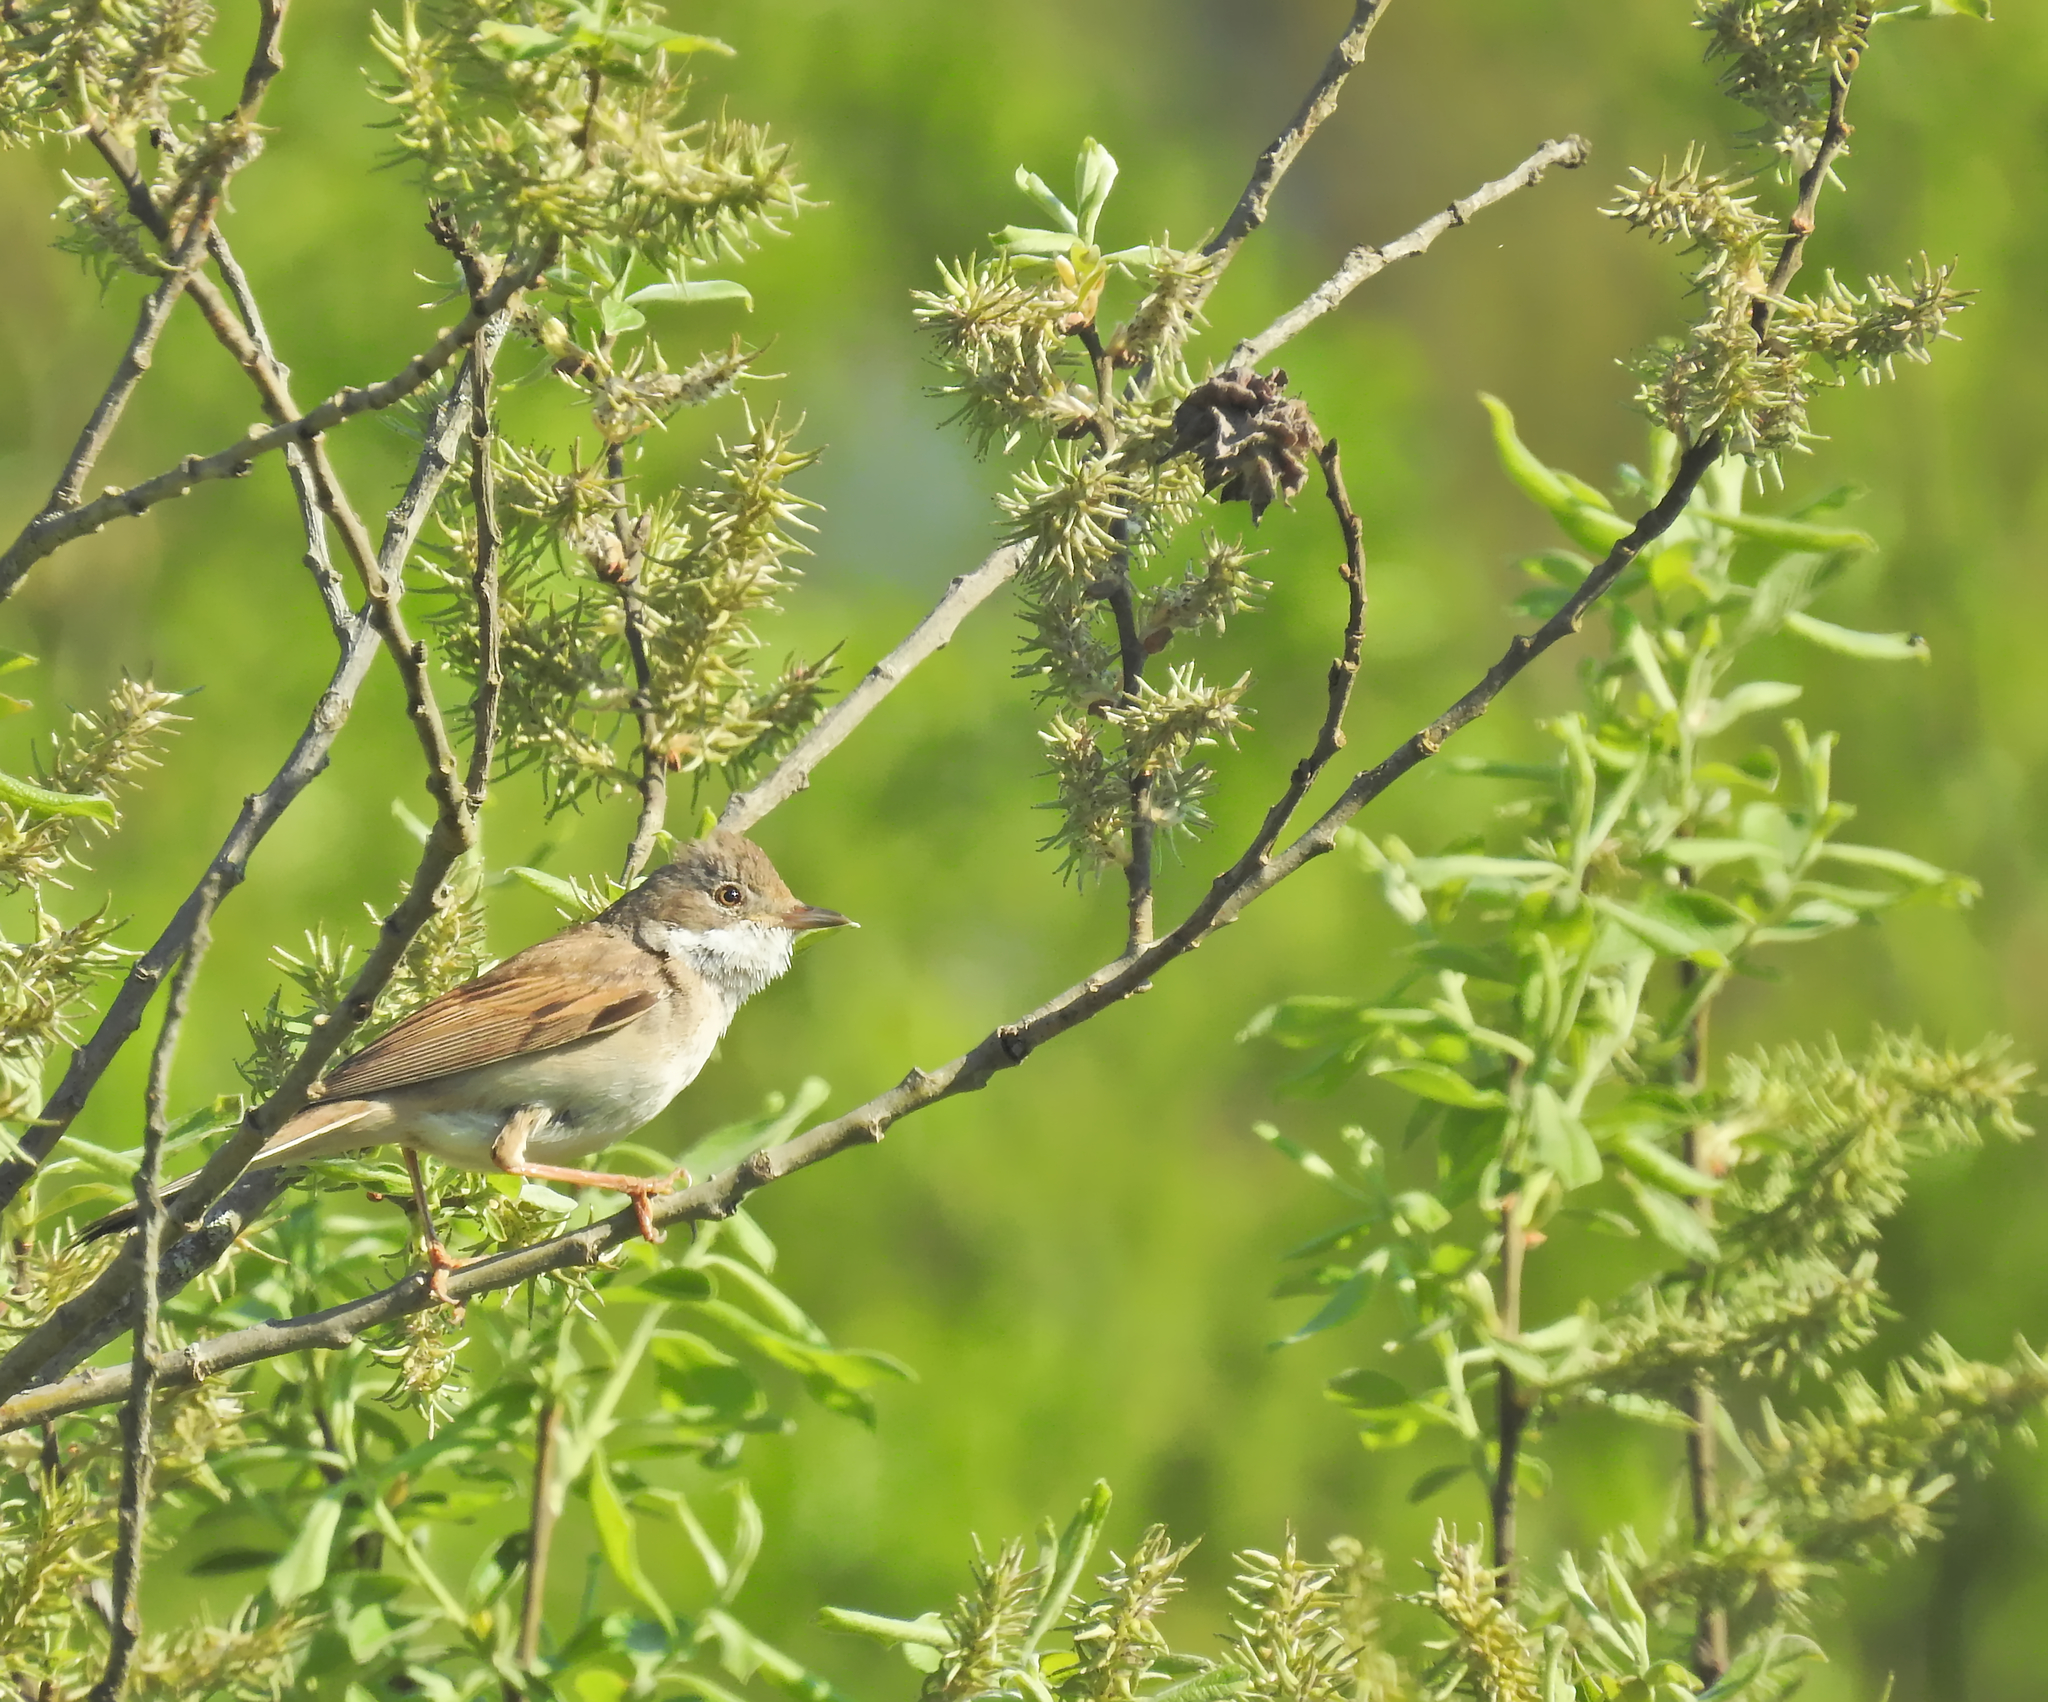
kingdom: Animalia
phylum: Chordata
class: Aves
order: Passeriformes
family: Sylviidae
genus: Sylvia
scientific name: Sylvia communis
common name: Common whitethroat
